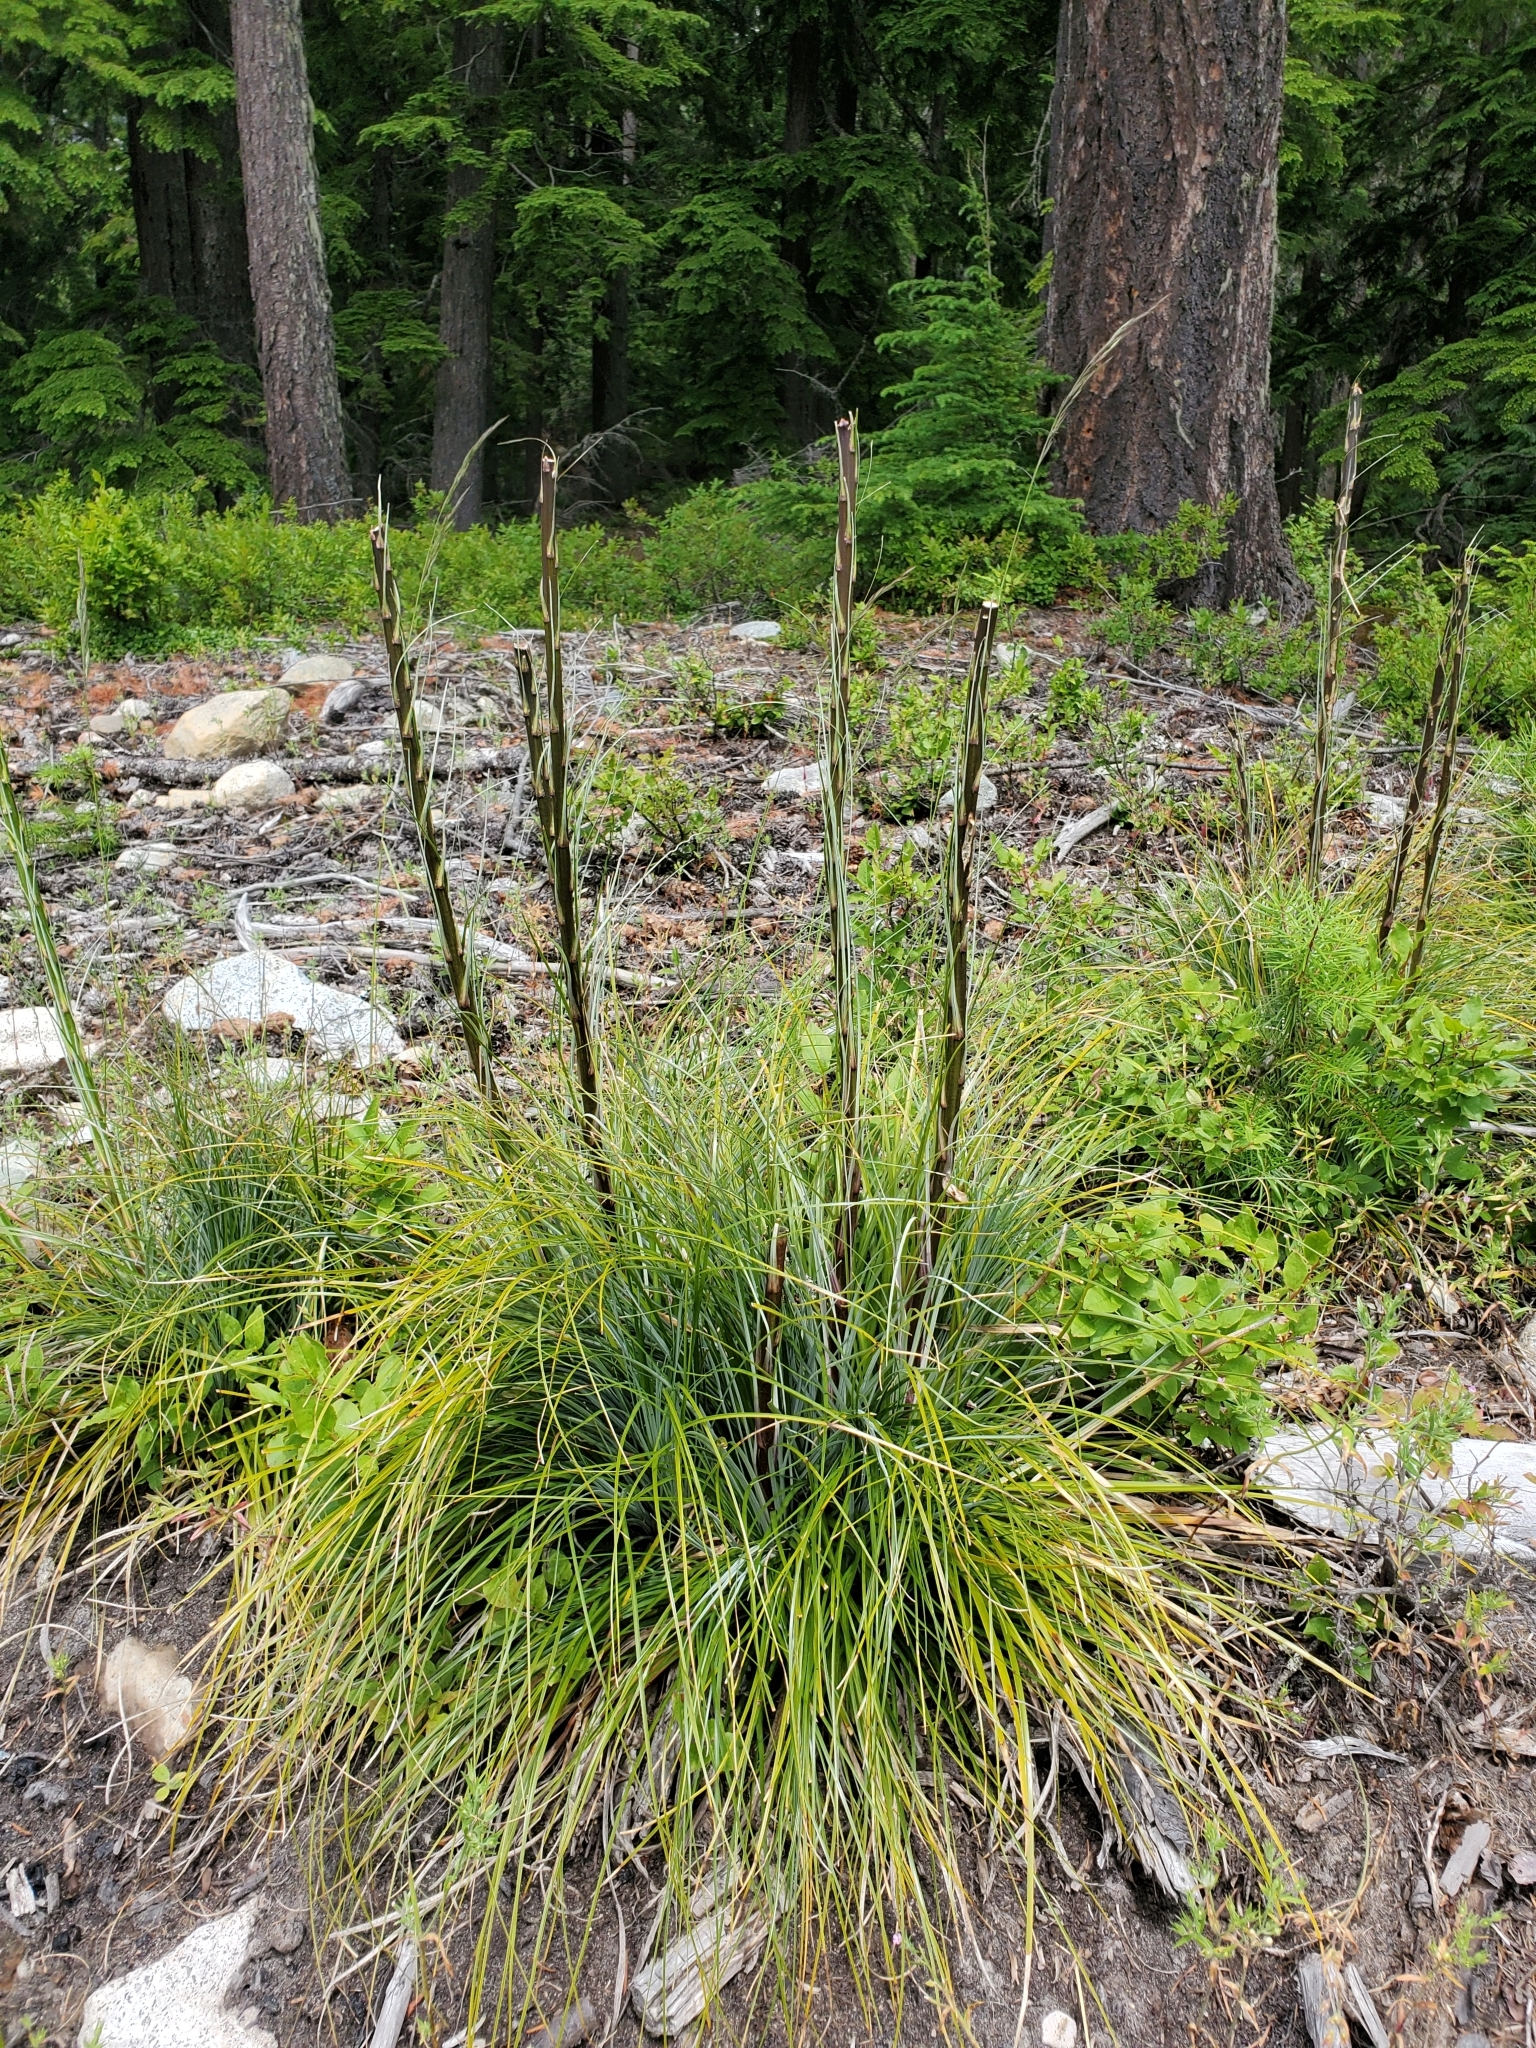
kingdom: Plantae
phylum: Tracheophyta
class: Liliopsida
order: Liliales
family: Melanthiaceae
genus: Xerophyllum
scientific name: Xerophyllum tenax
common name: Bear-grass
